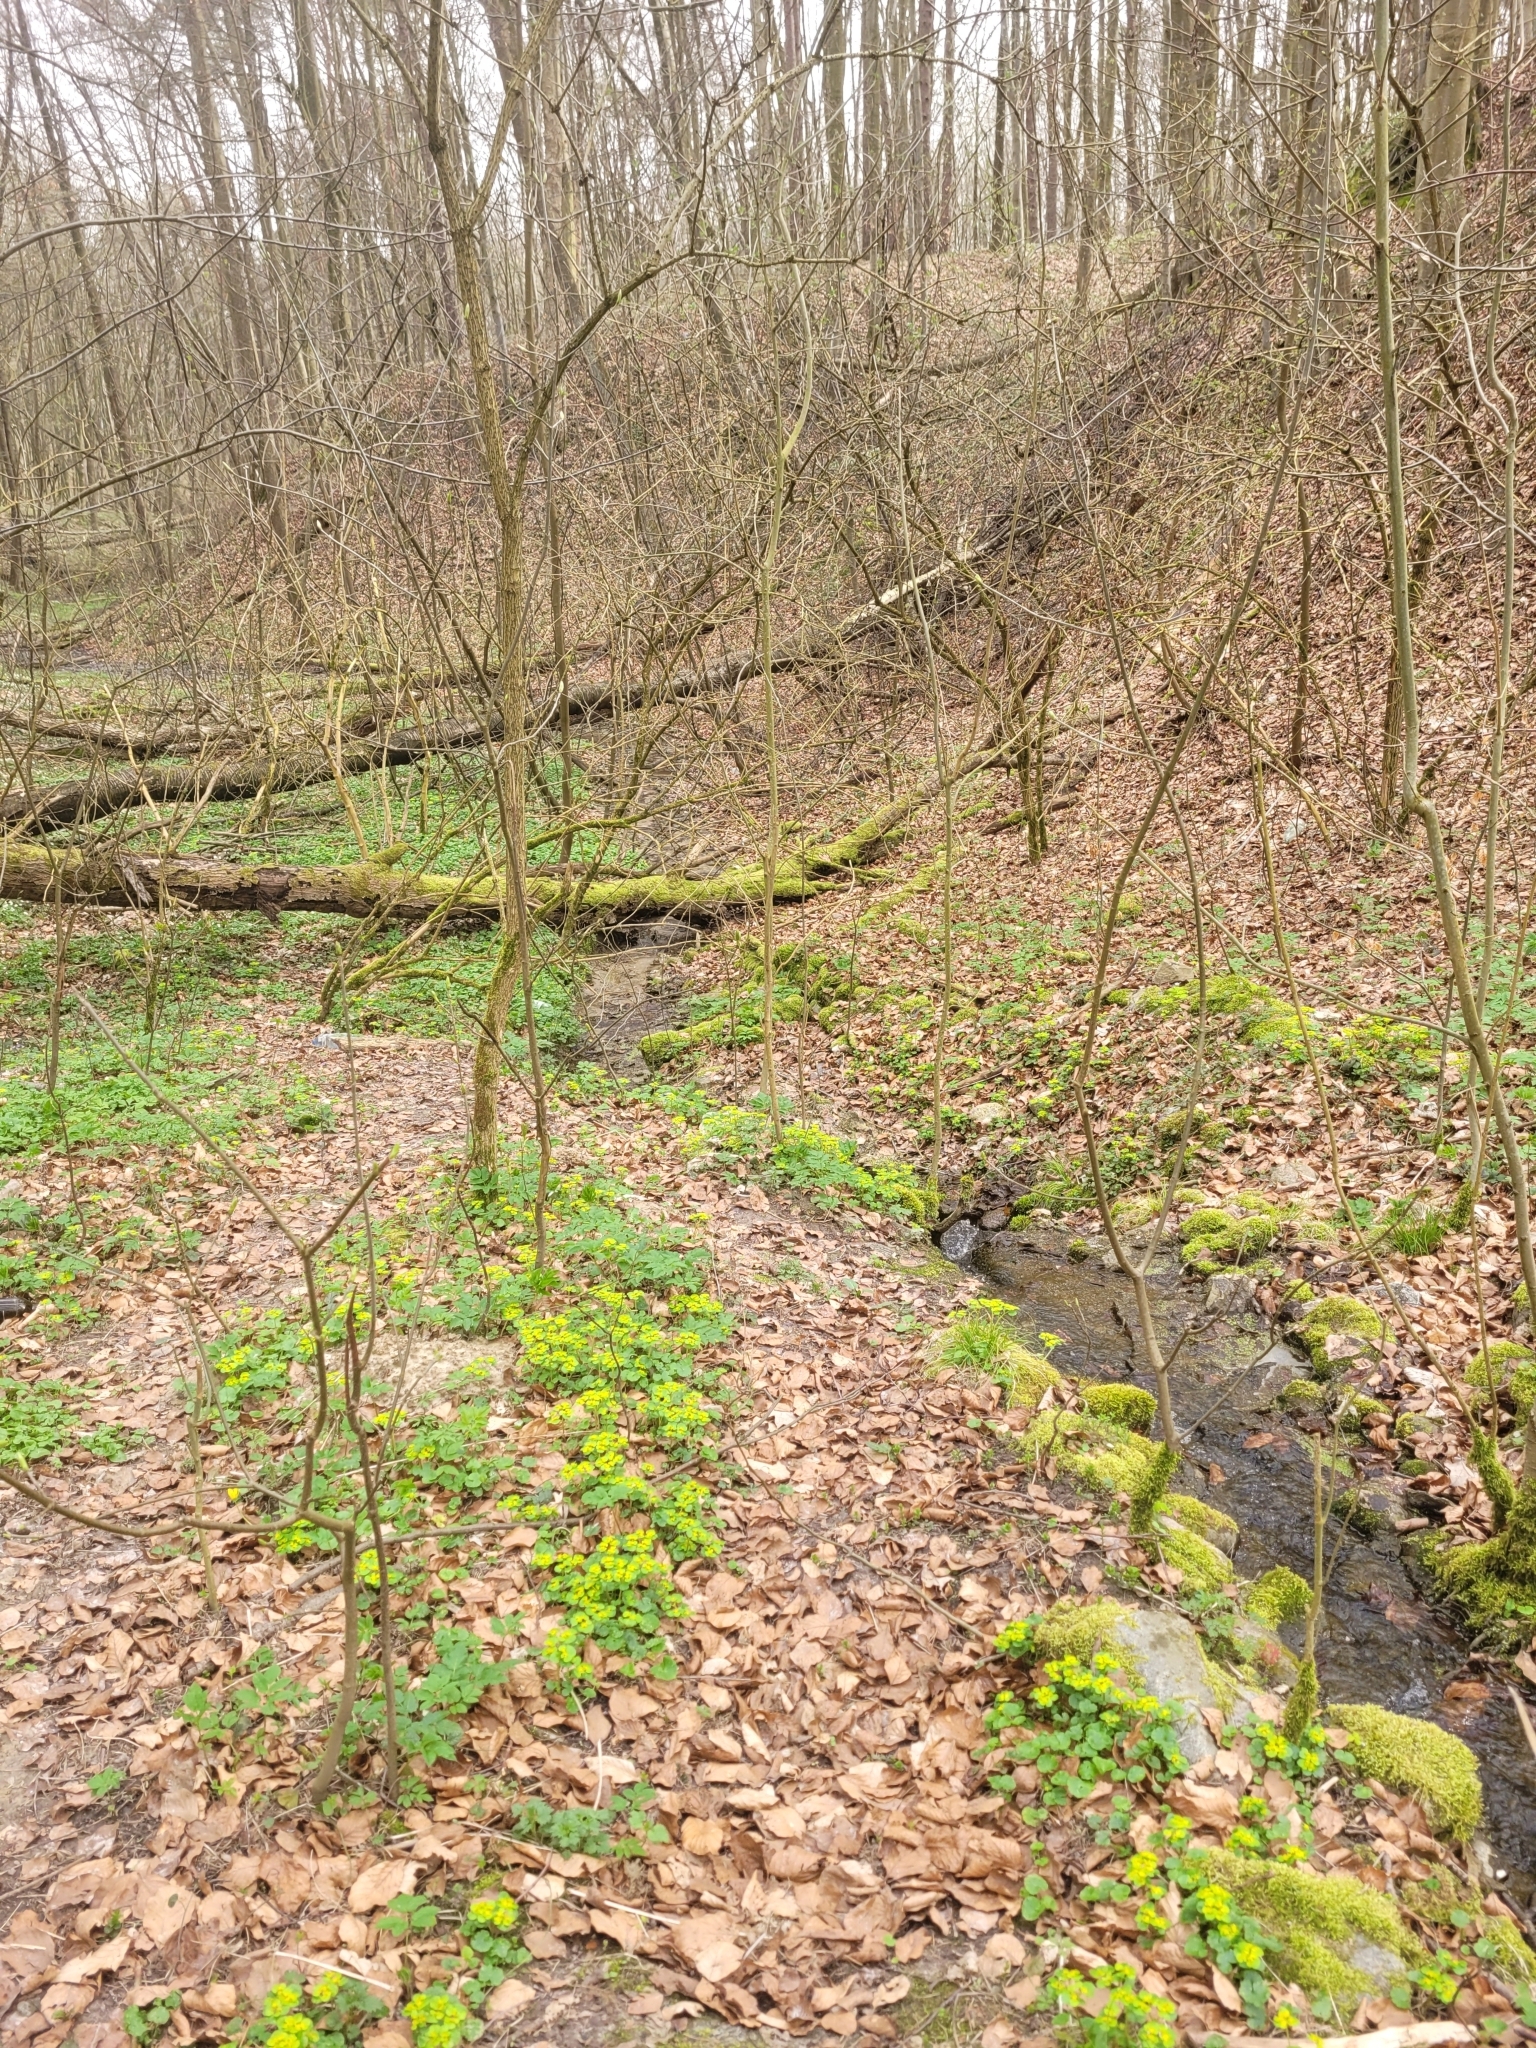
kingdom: Plantae
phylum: Tracheophyta
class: Magnoliopsida
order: Saxifragales
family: Saxifragaceae
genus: Chrysosplenium
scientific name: Chrysosplenium alternifolium
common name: Alternate-leaved golden-saxifrage
